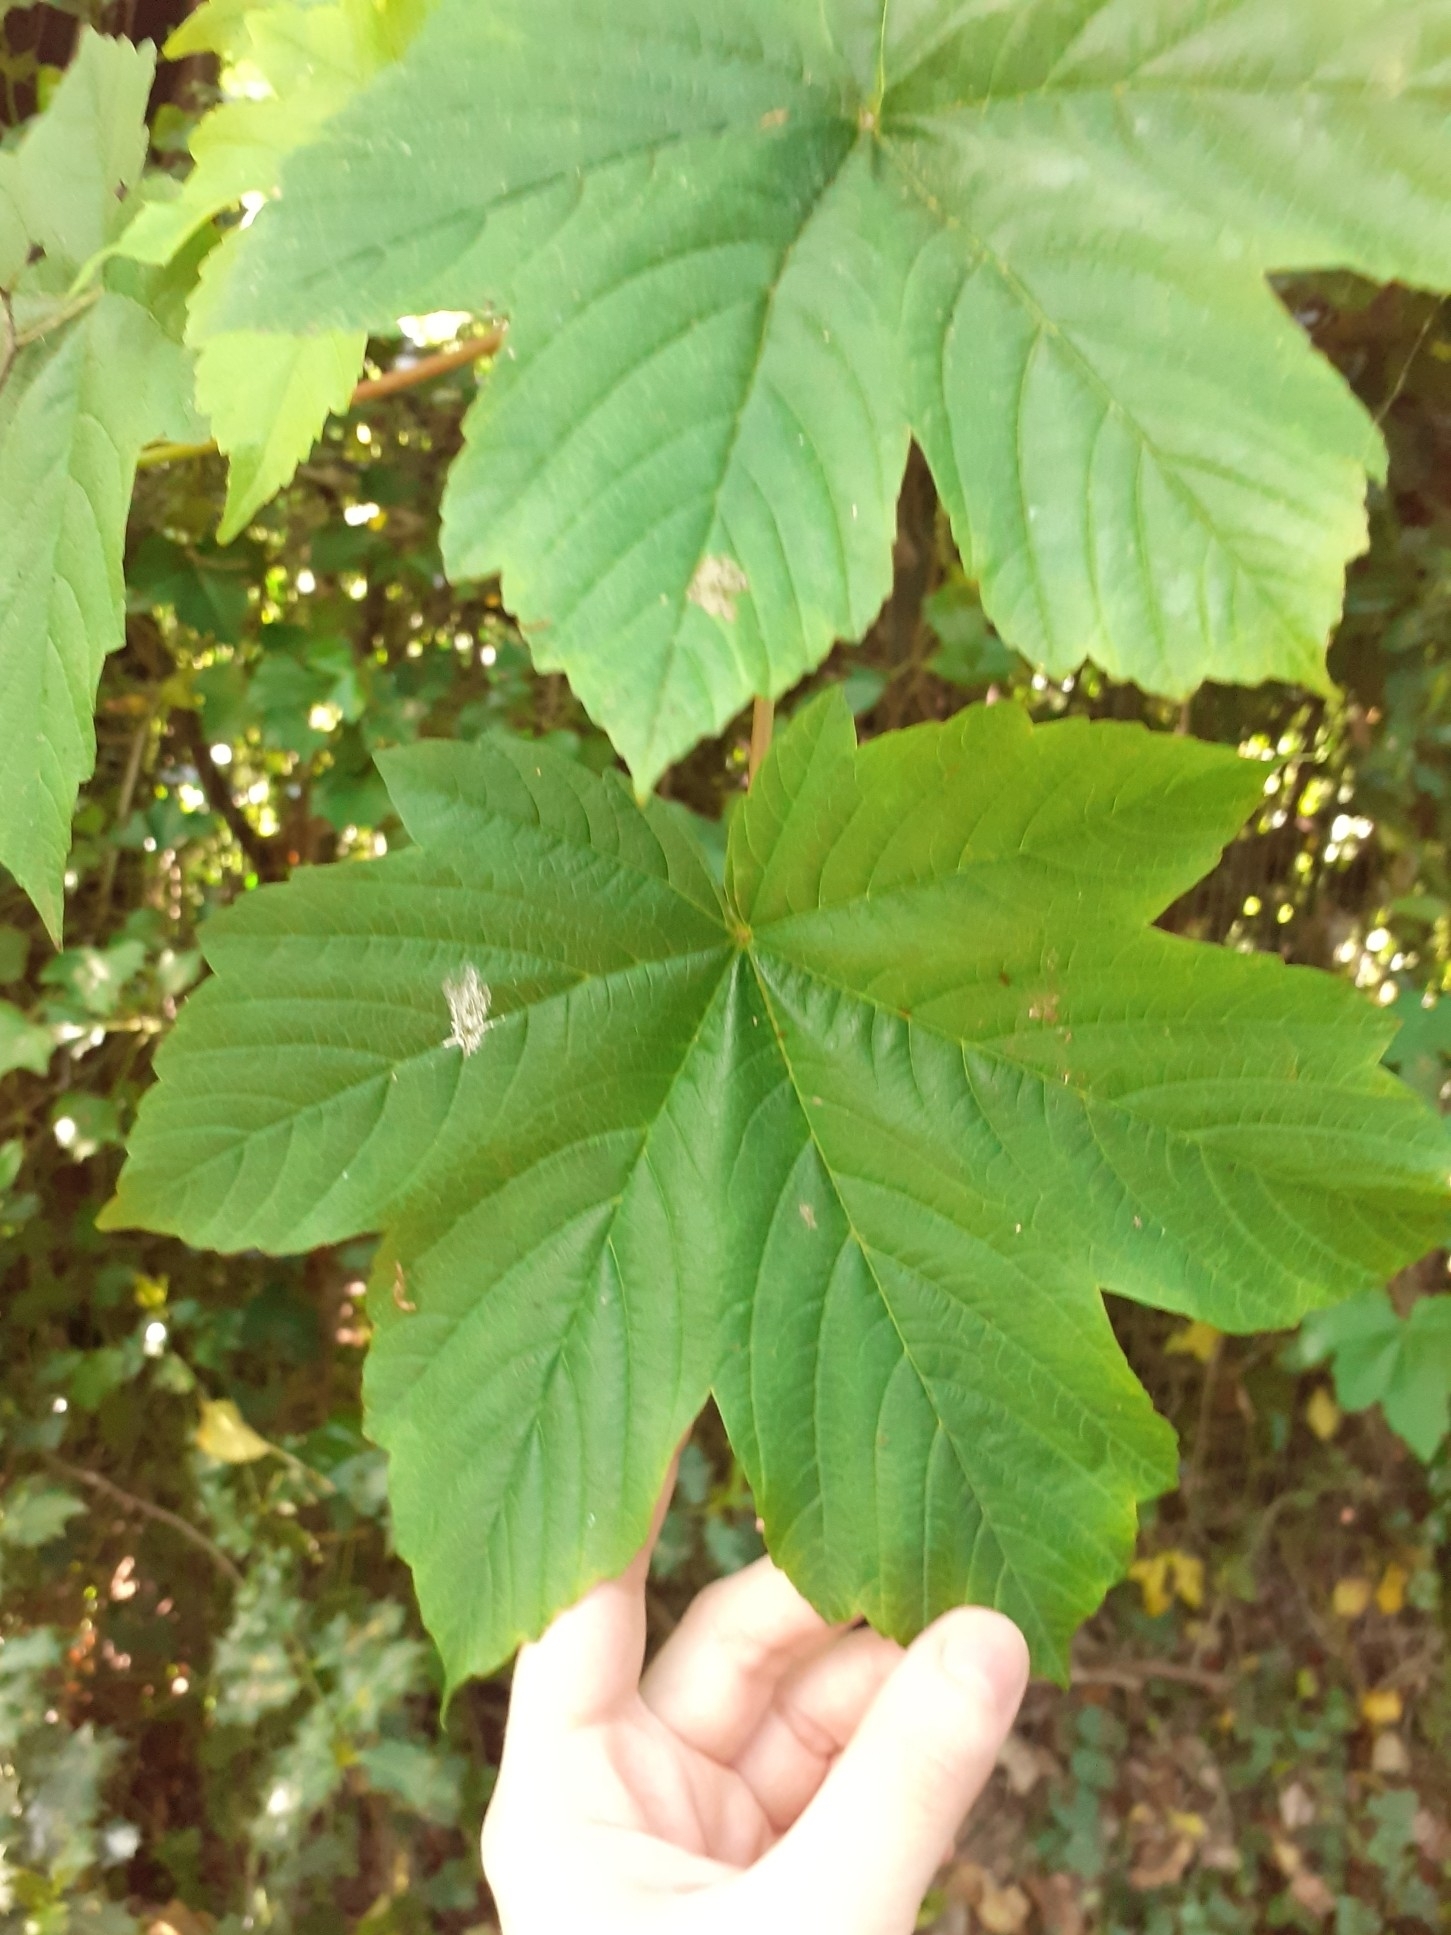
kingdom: Plantae
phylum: Tracheophyta
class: Magnoliopsida
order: Sapindales
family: Sapindaceae
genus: Acer
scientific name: Acer pseudoplatanus
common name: Sycamore
